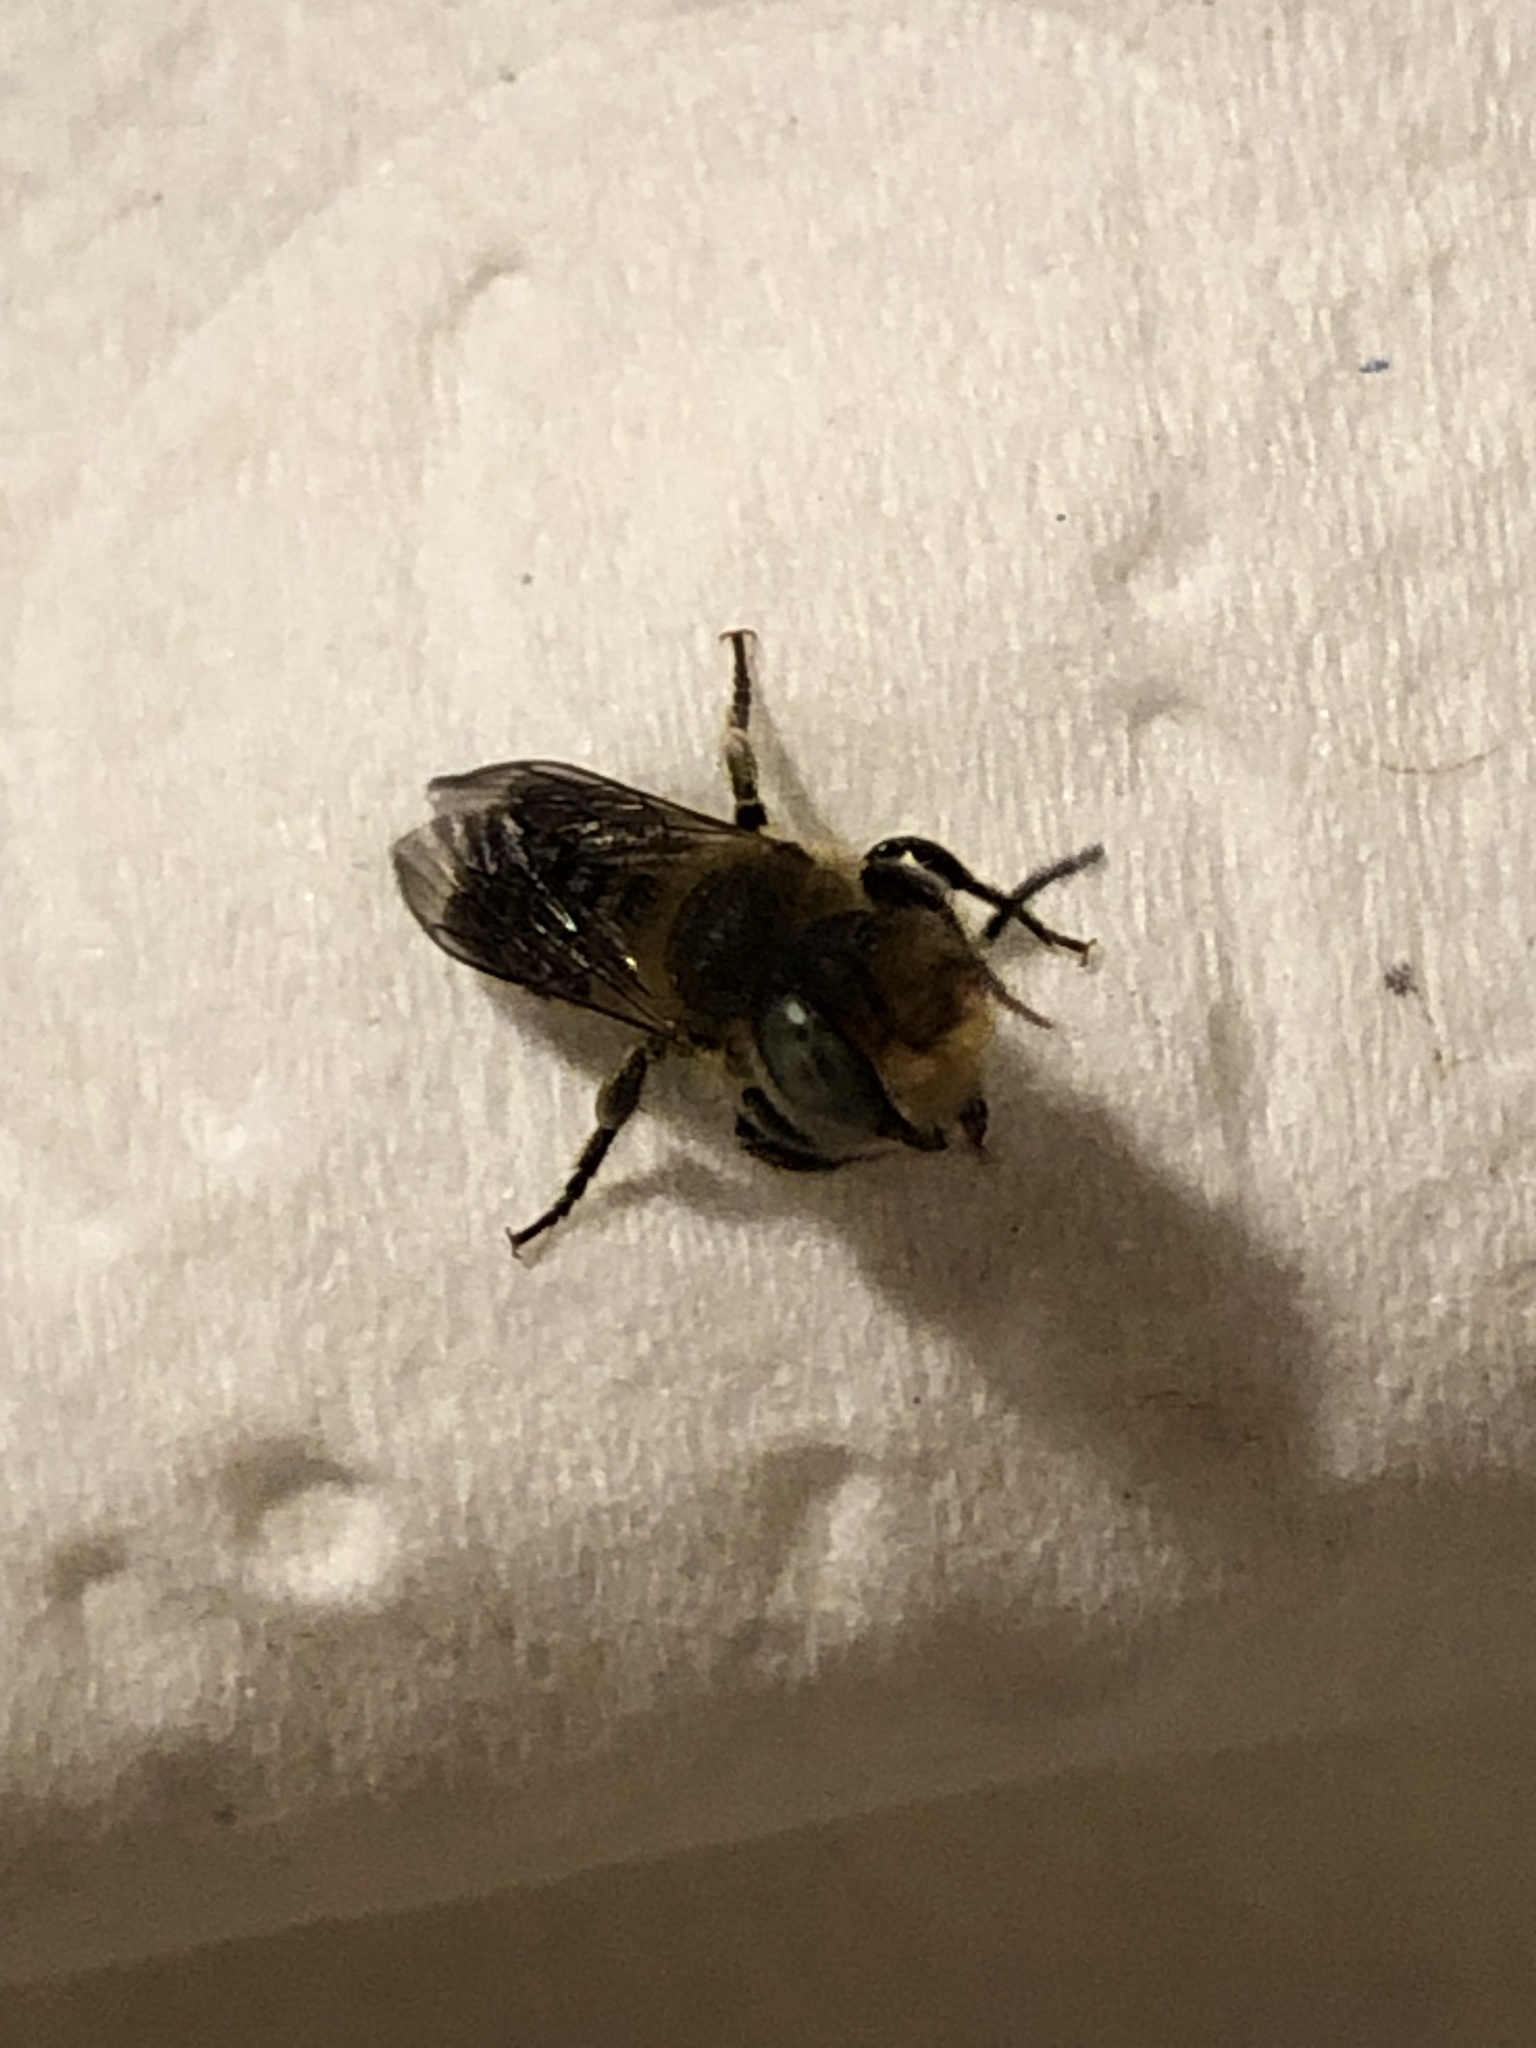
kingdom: Animalia
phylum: Arthropoda
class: Insecta
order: Hymenoptera
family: Megachilidae
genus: Megachile
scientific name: Megachile rotundata
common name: Alfalfa leafcutting bee
